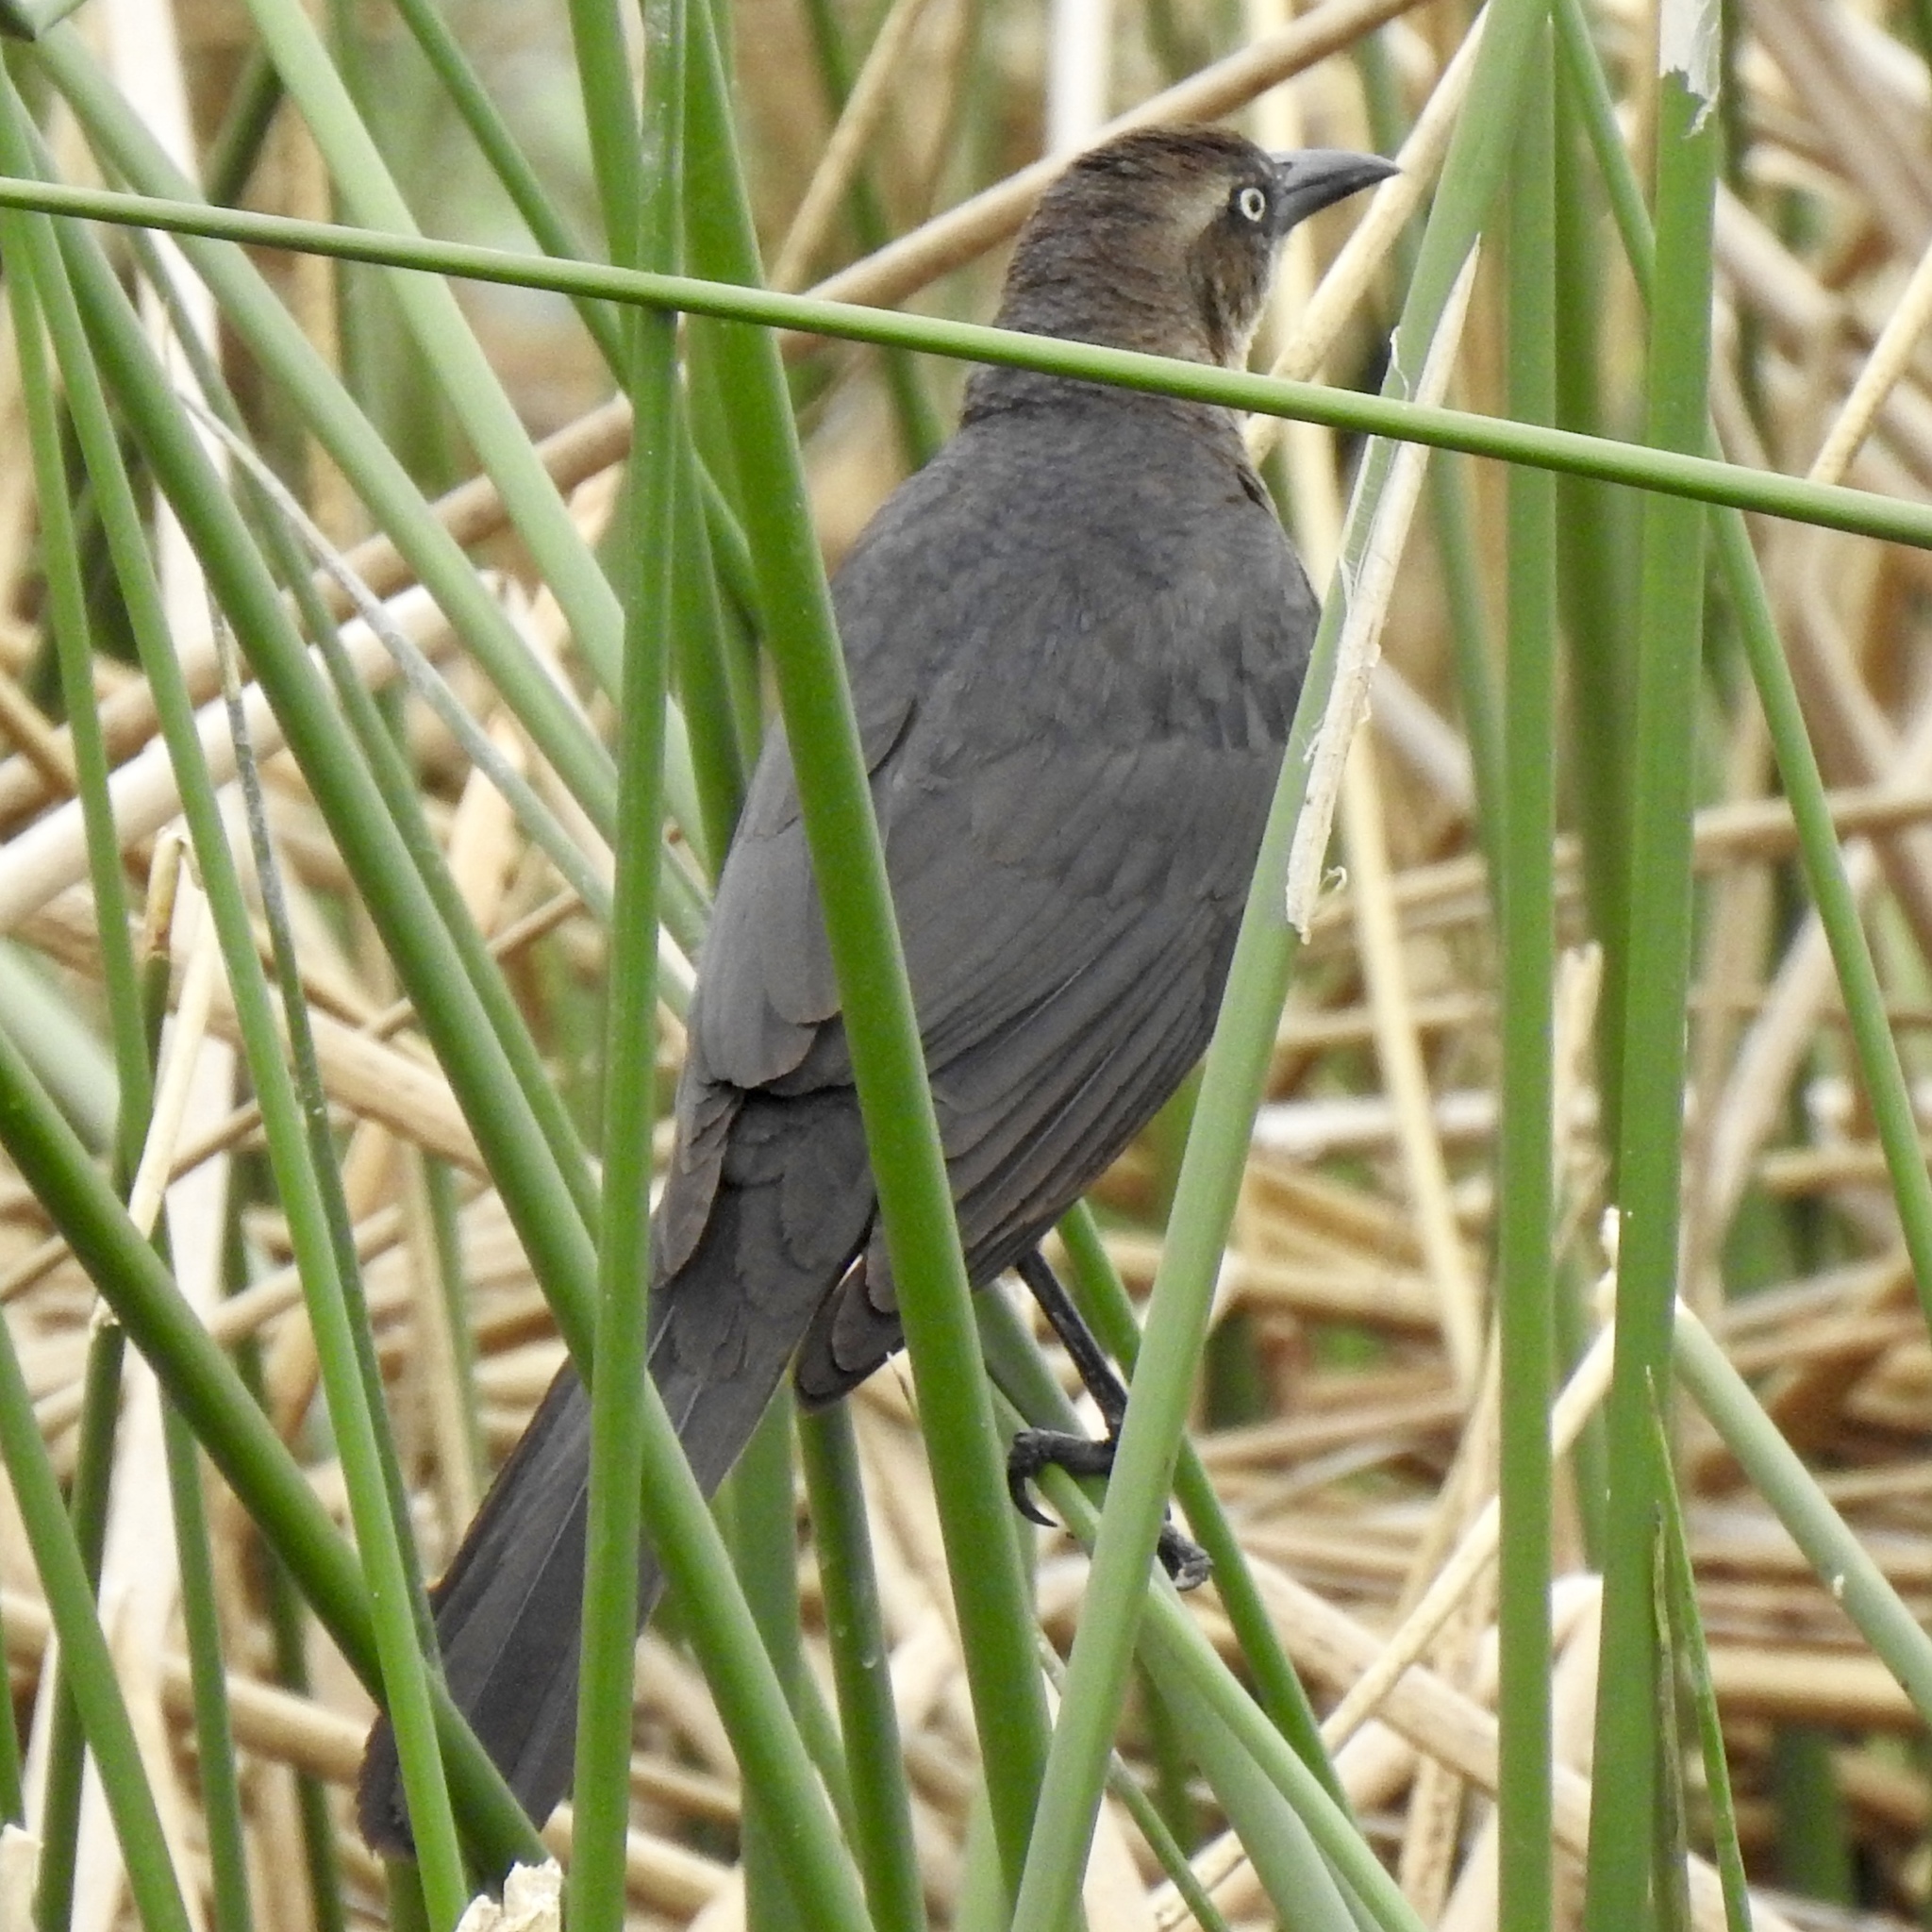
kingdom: Animalia
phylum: Chordata
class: Aves
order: Passeriformes
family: Icteridae
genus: Quiscalus
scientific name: Quiscalus mexicanus
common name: Great-tailed grackle
